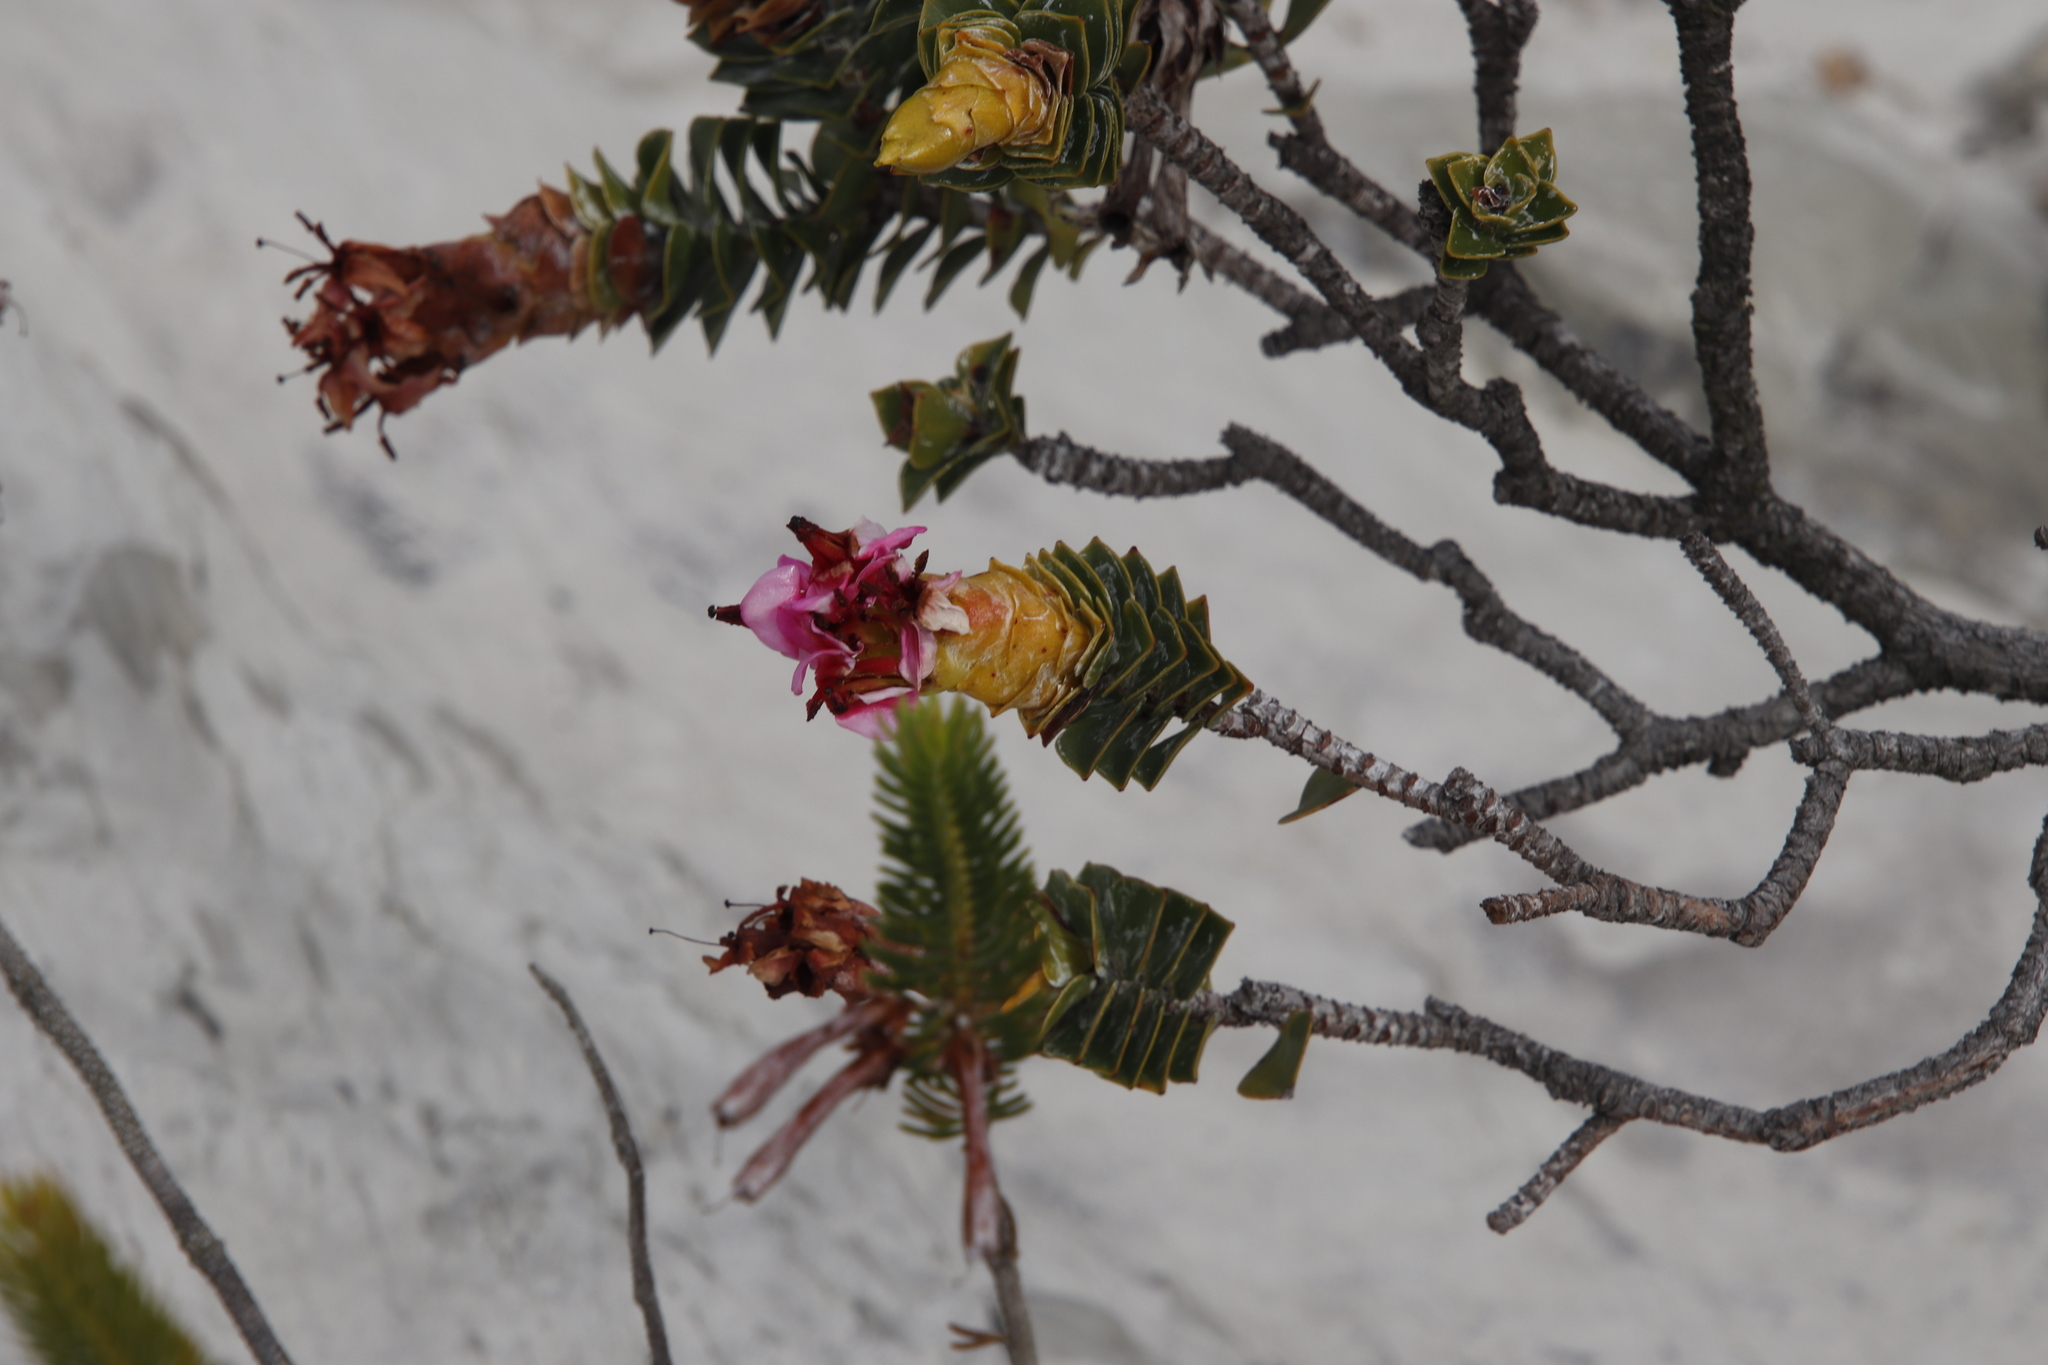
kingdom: Plantae
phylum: Tracheophyta
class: Magnoliopsida
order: Myrtales
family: Penaeaceae
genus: Saltera
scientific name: Saltera sarcocolla
